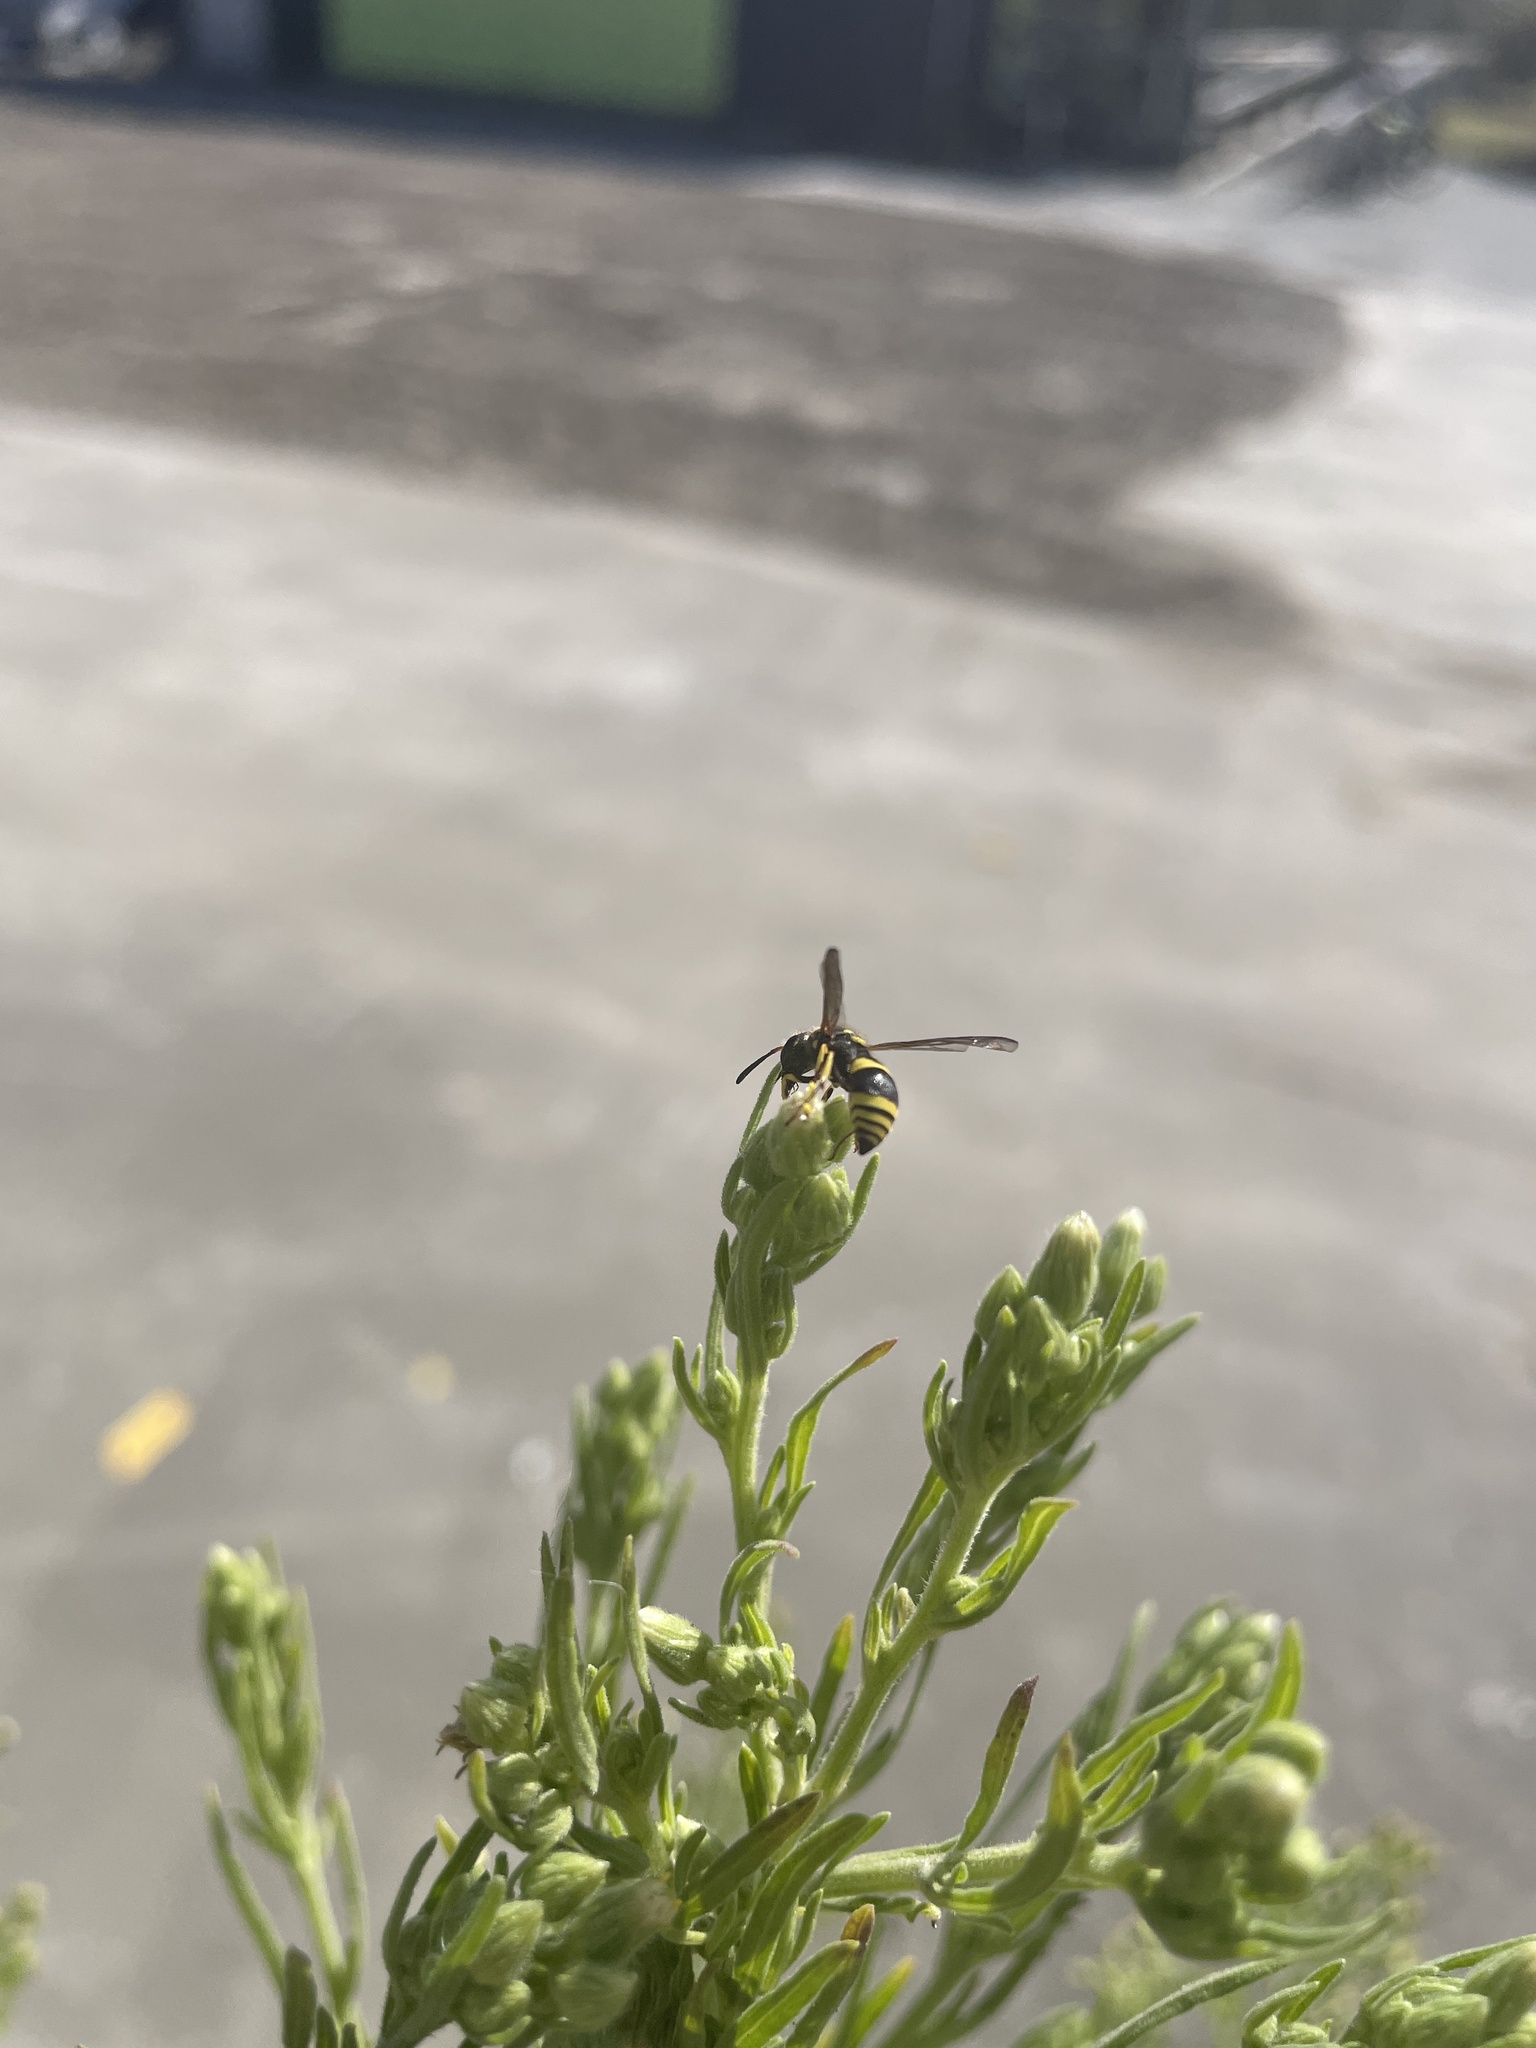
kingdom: Animalia
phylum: Arthropoda
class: Insecta
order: Hymenoptera
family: Vespidae
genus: Ancistrocerus
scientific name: Ancistrocerus gazella
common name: European tube wasp
